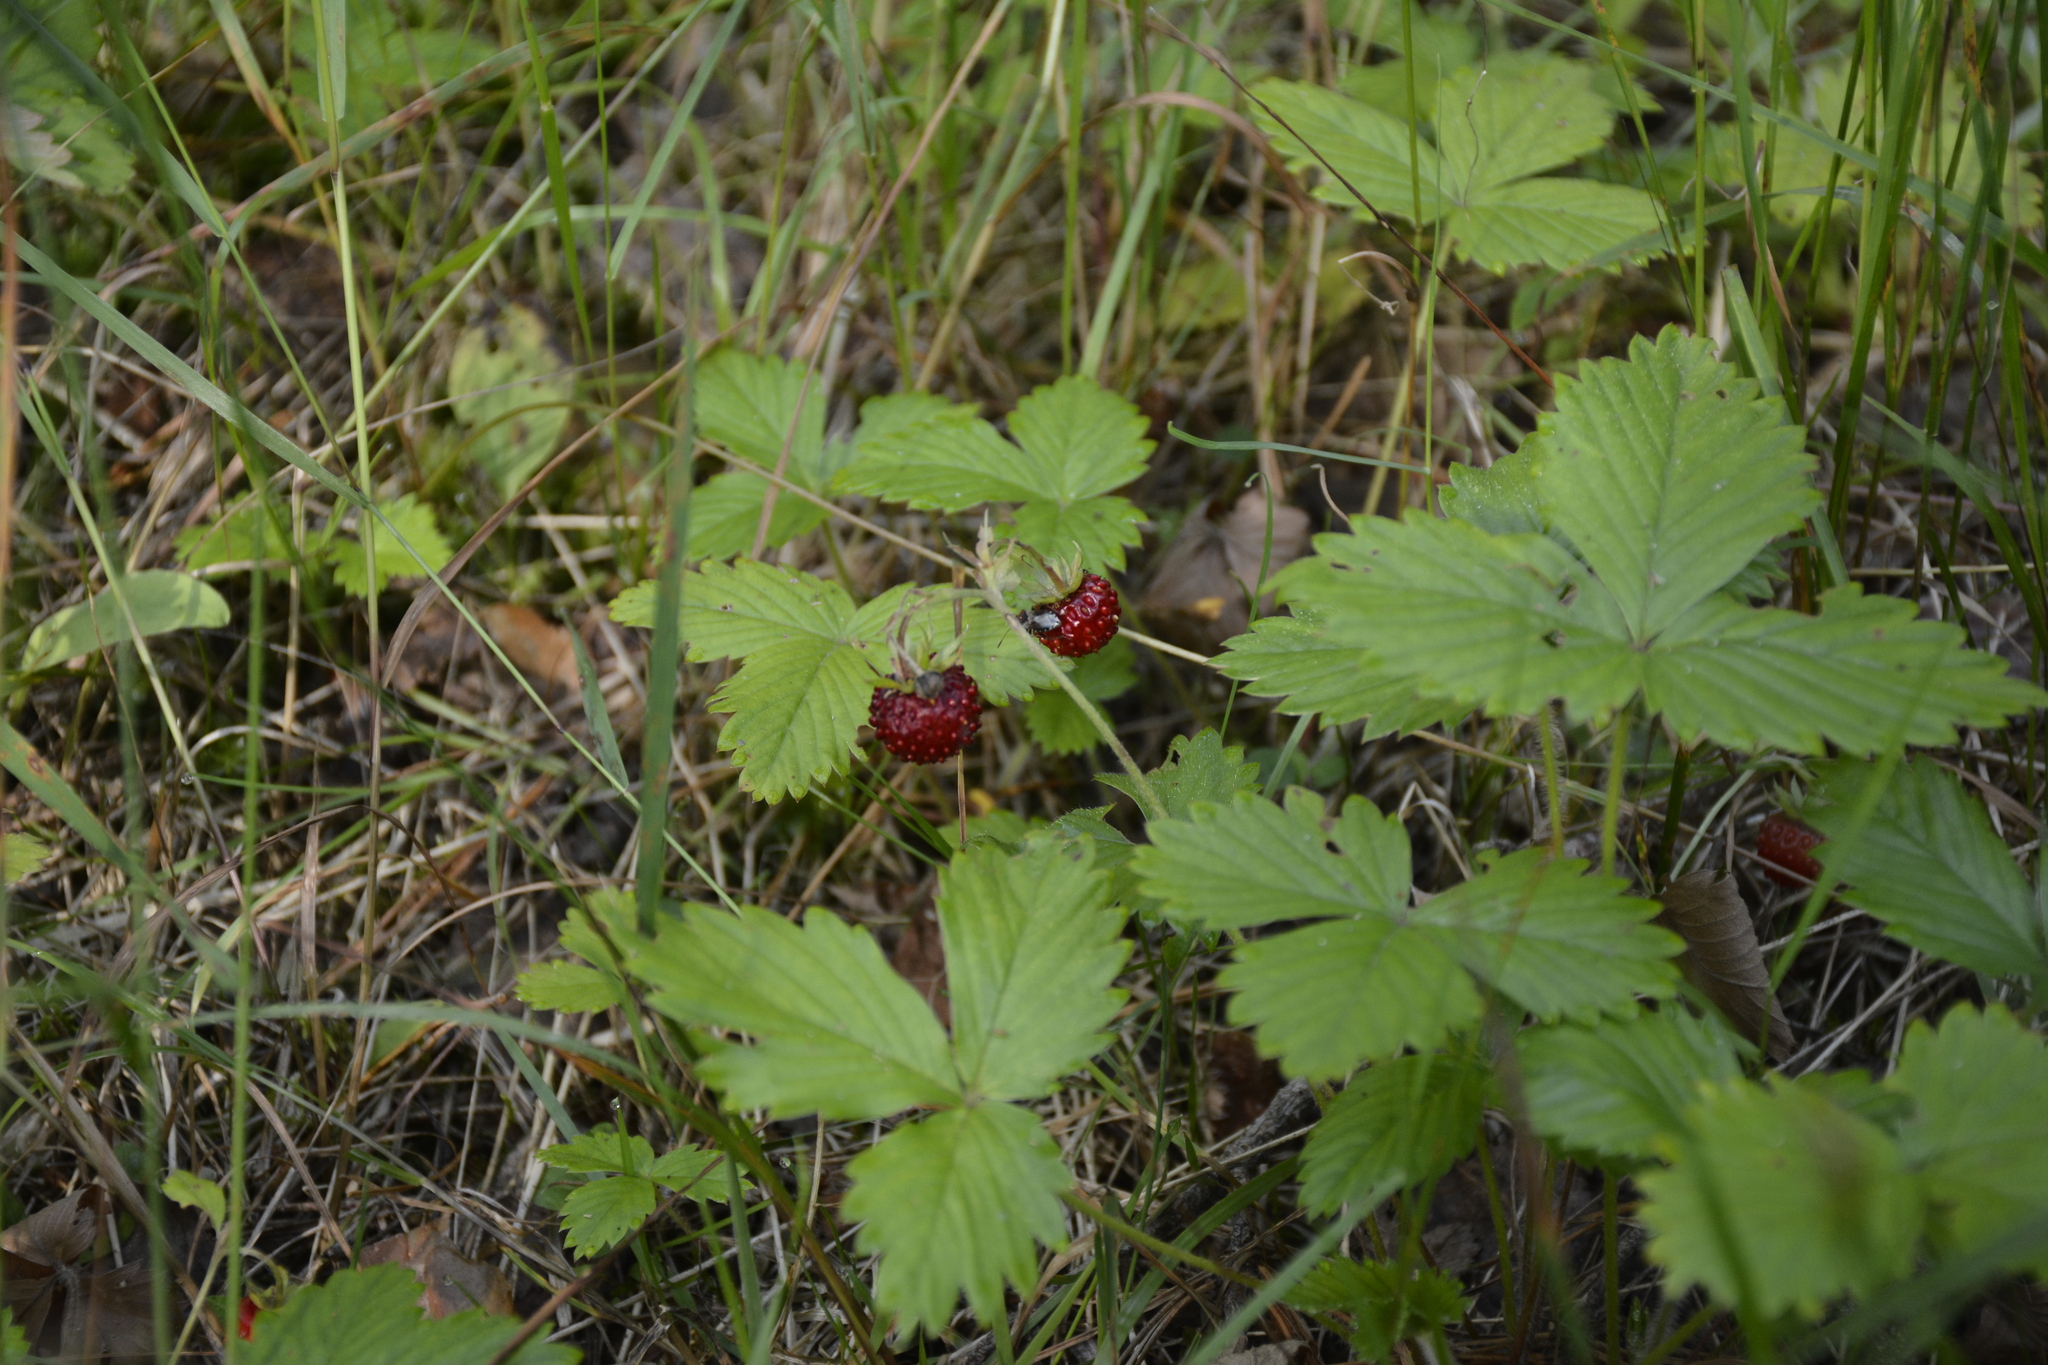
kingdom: Plantae
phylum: Tracheophyta
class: Magnoliopsida
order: Rosales
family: Rosaceae
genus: Fragaria
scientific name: Fragaria vesca
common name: Wild strawberry
